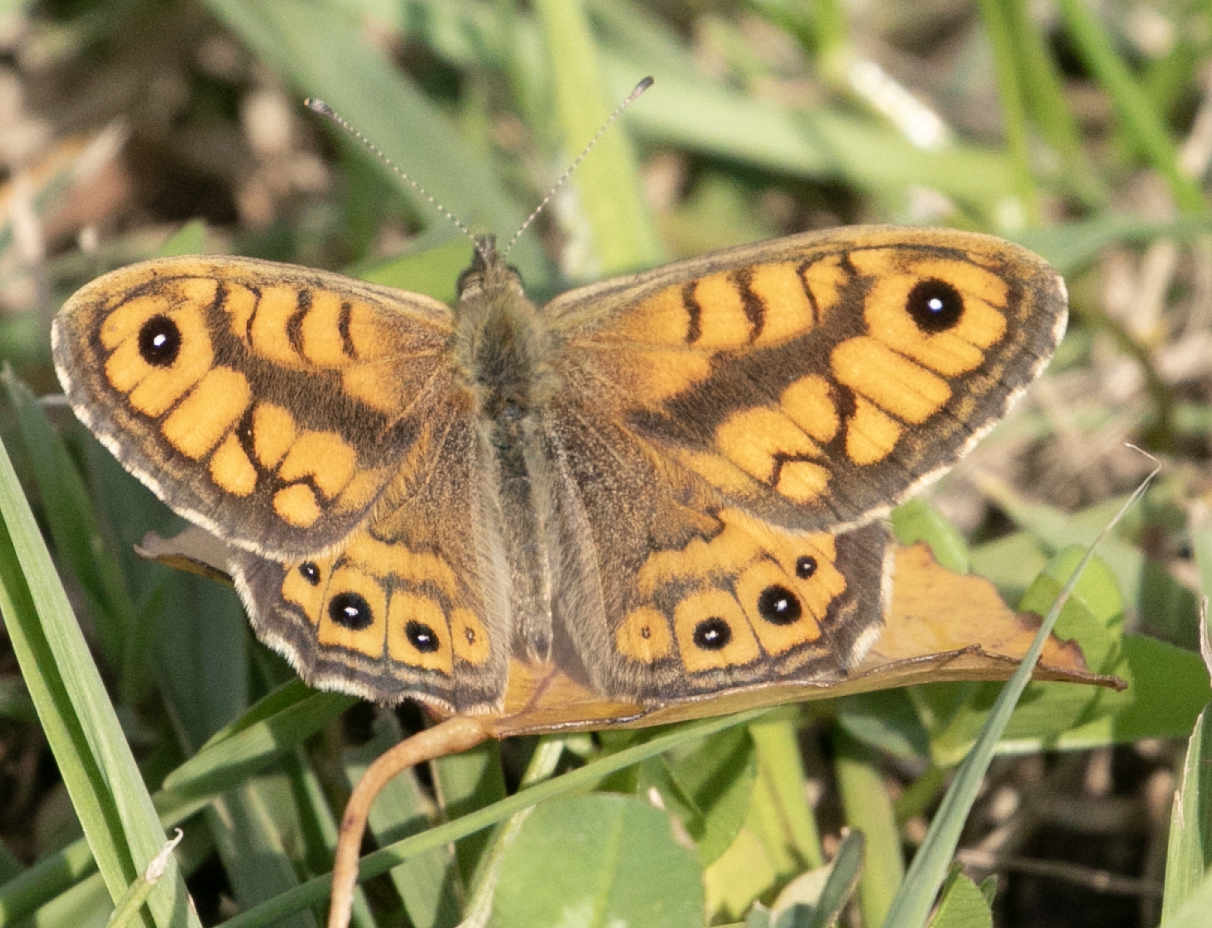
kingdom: Animalia
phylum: Arthropoda
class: Insecta
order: Lepidoptera
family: Nymphalidae
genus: Pararge
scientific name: Pararge Lasiommata megera
